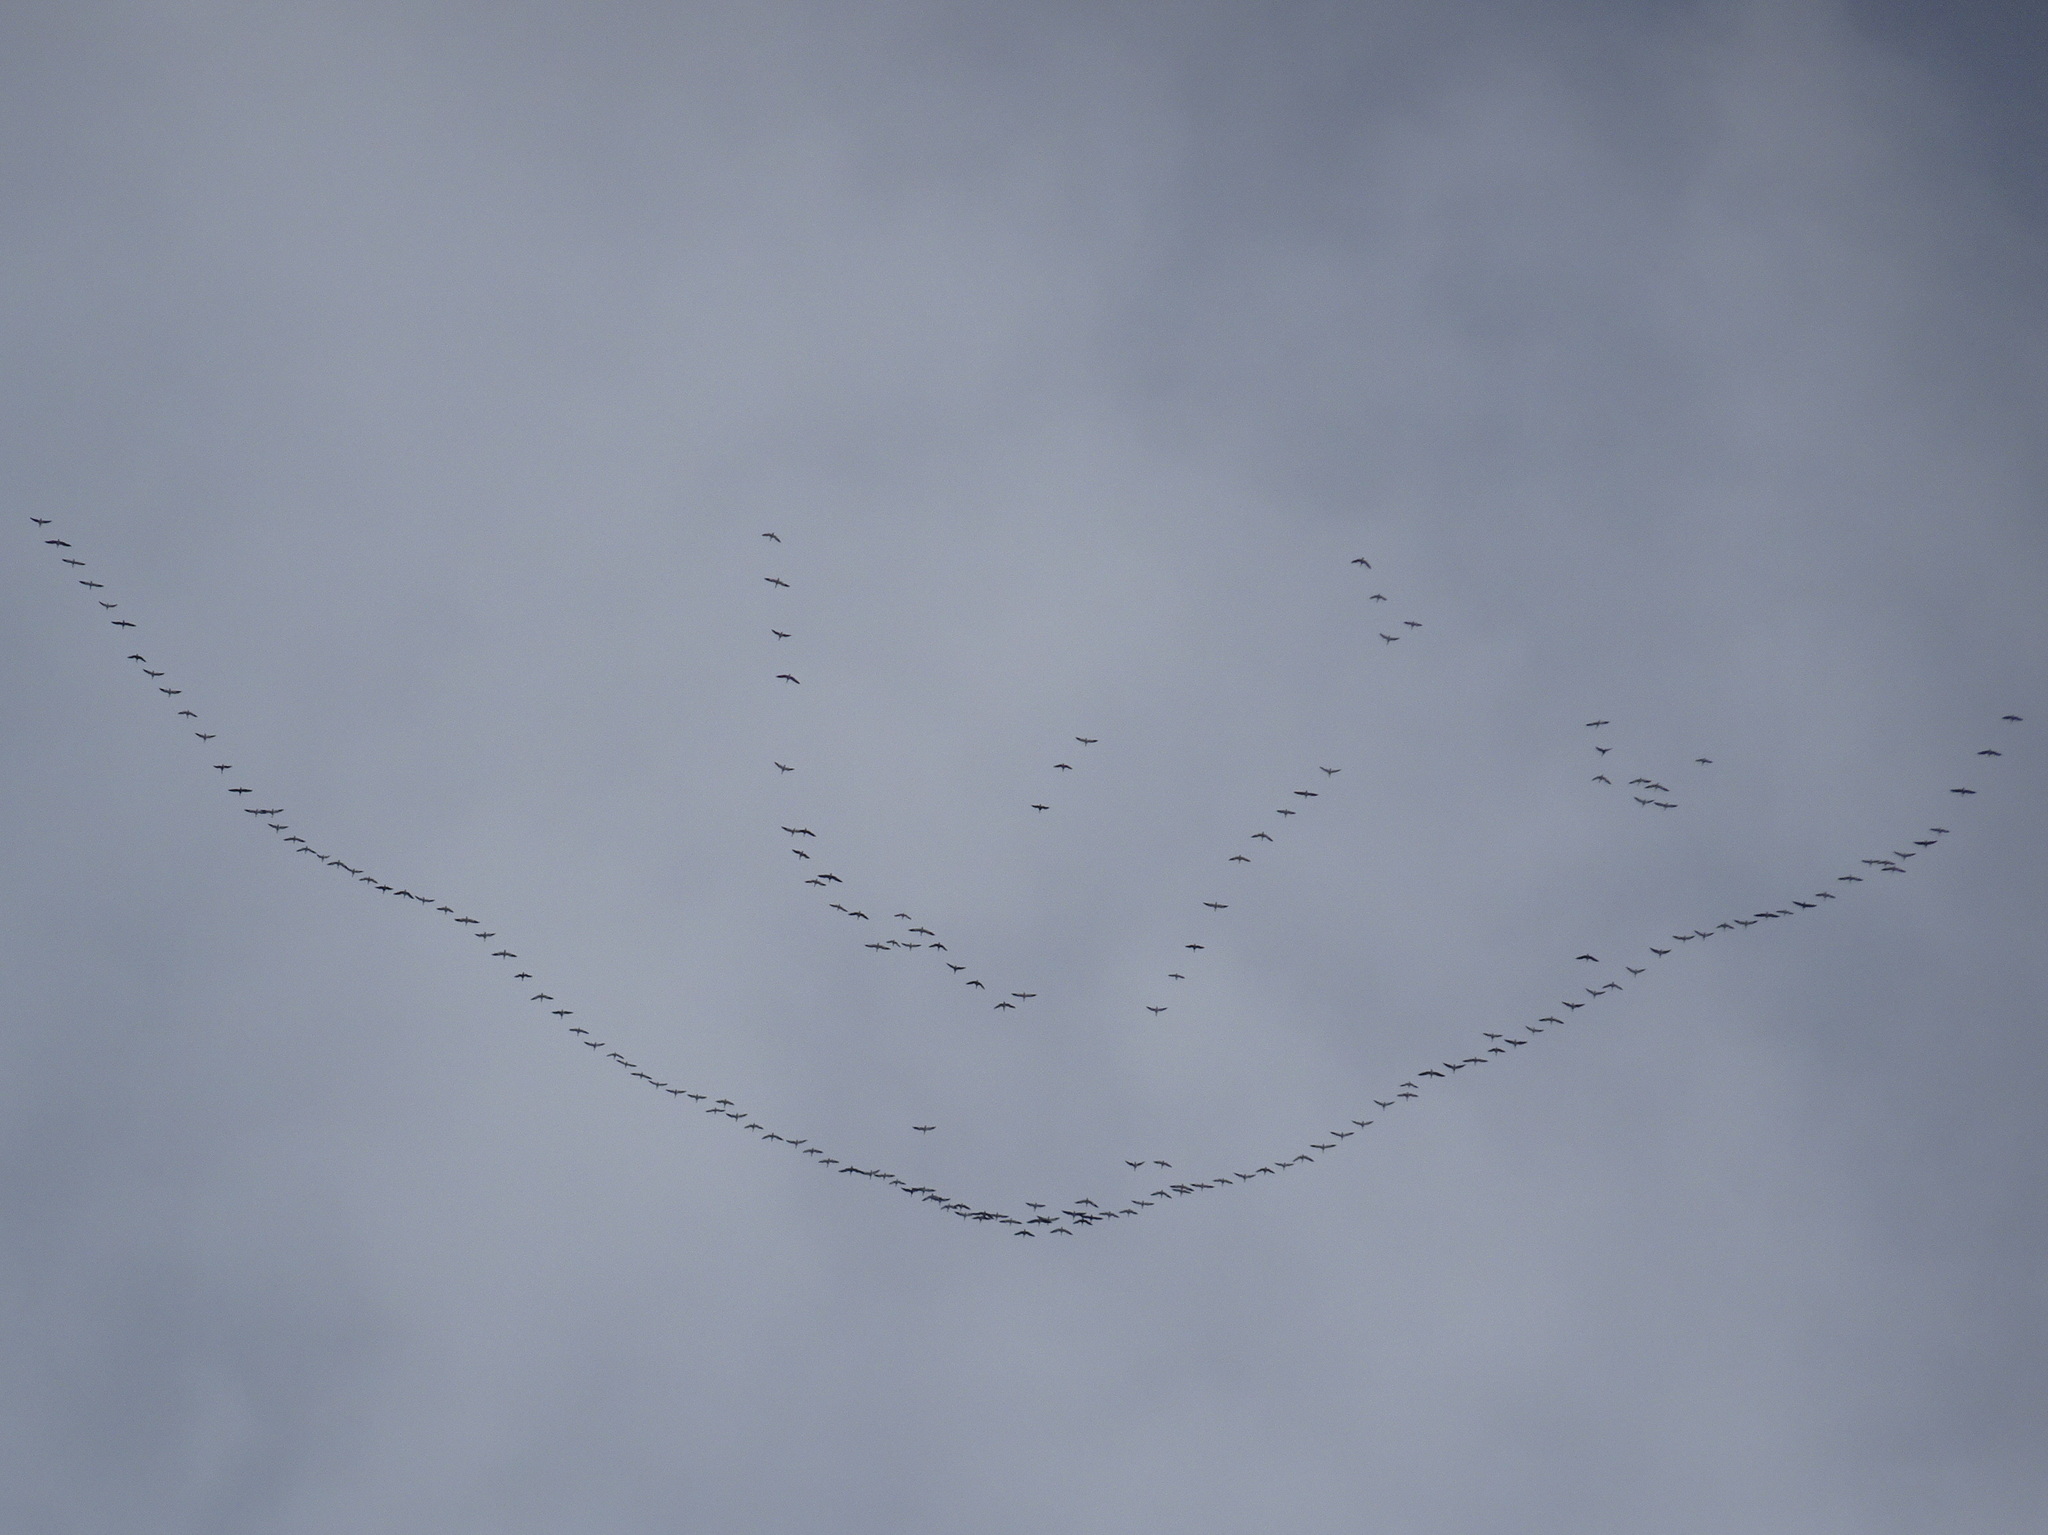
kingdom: Animalia
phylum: Chordata
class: Aves
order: Anseriformes
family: Anatidae
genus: Anser
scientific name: Anser caerulescens
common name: Snow goose
